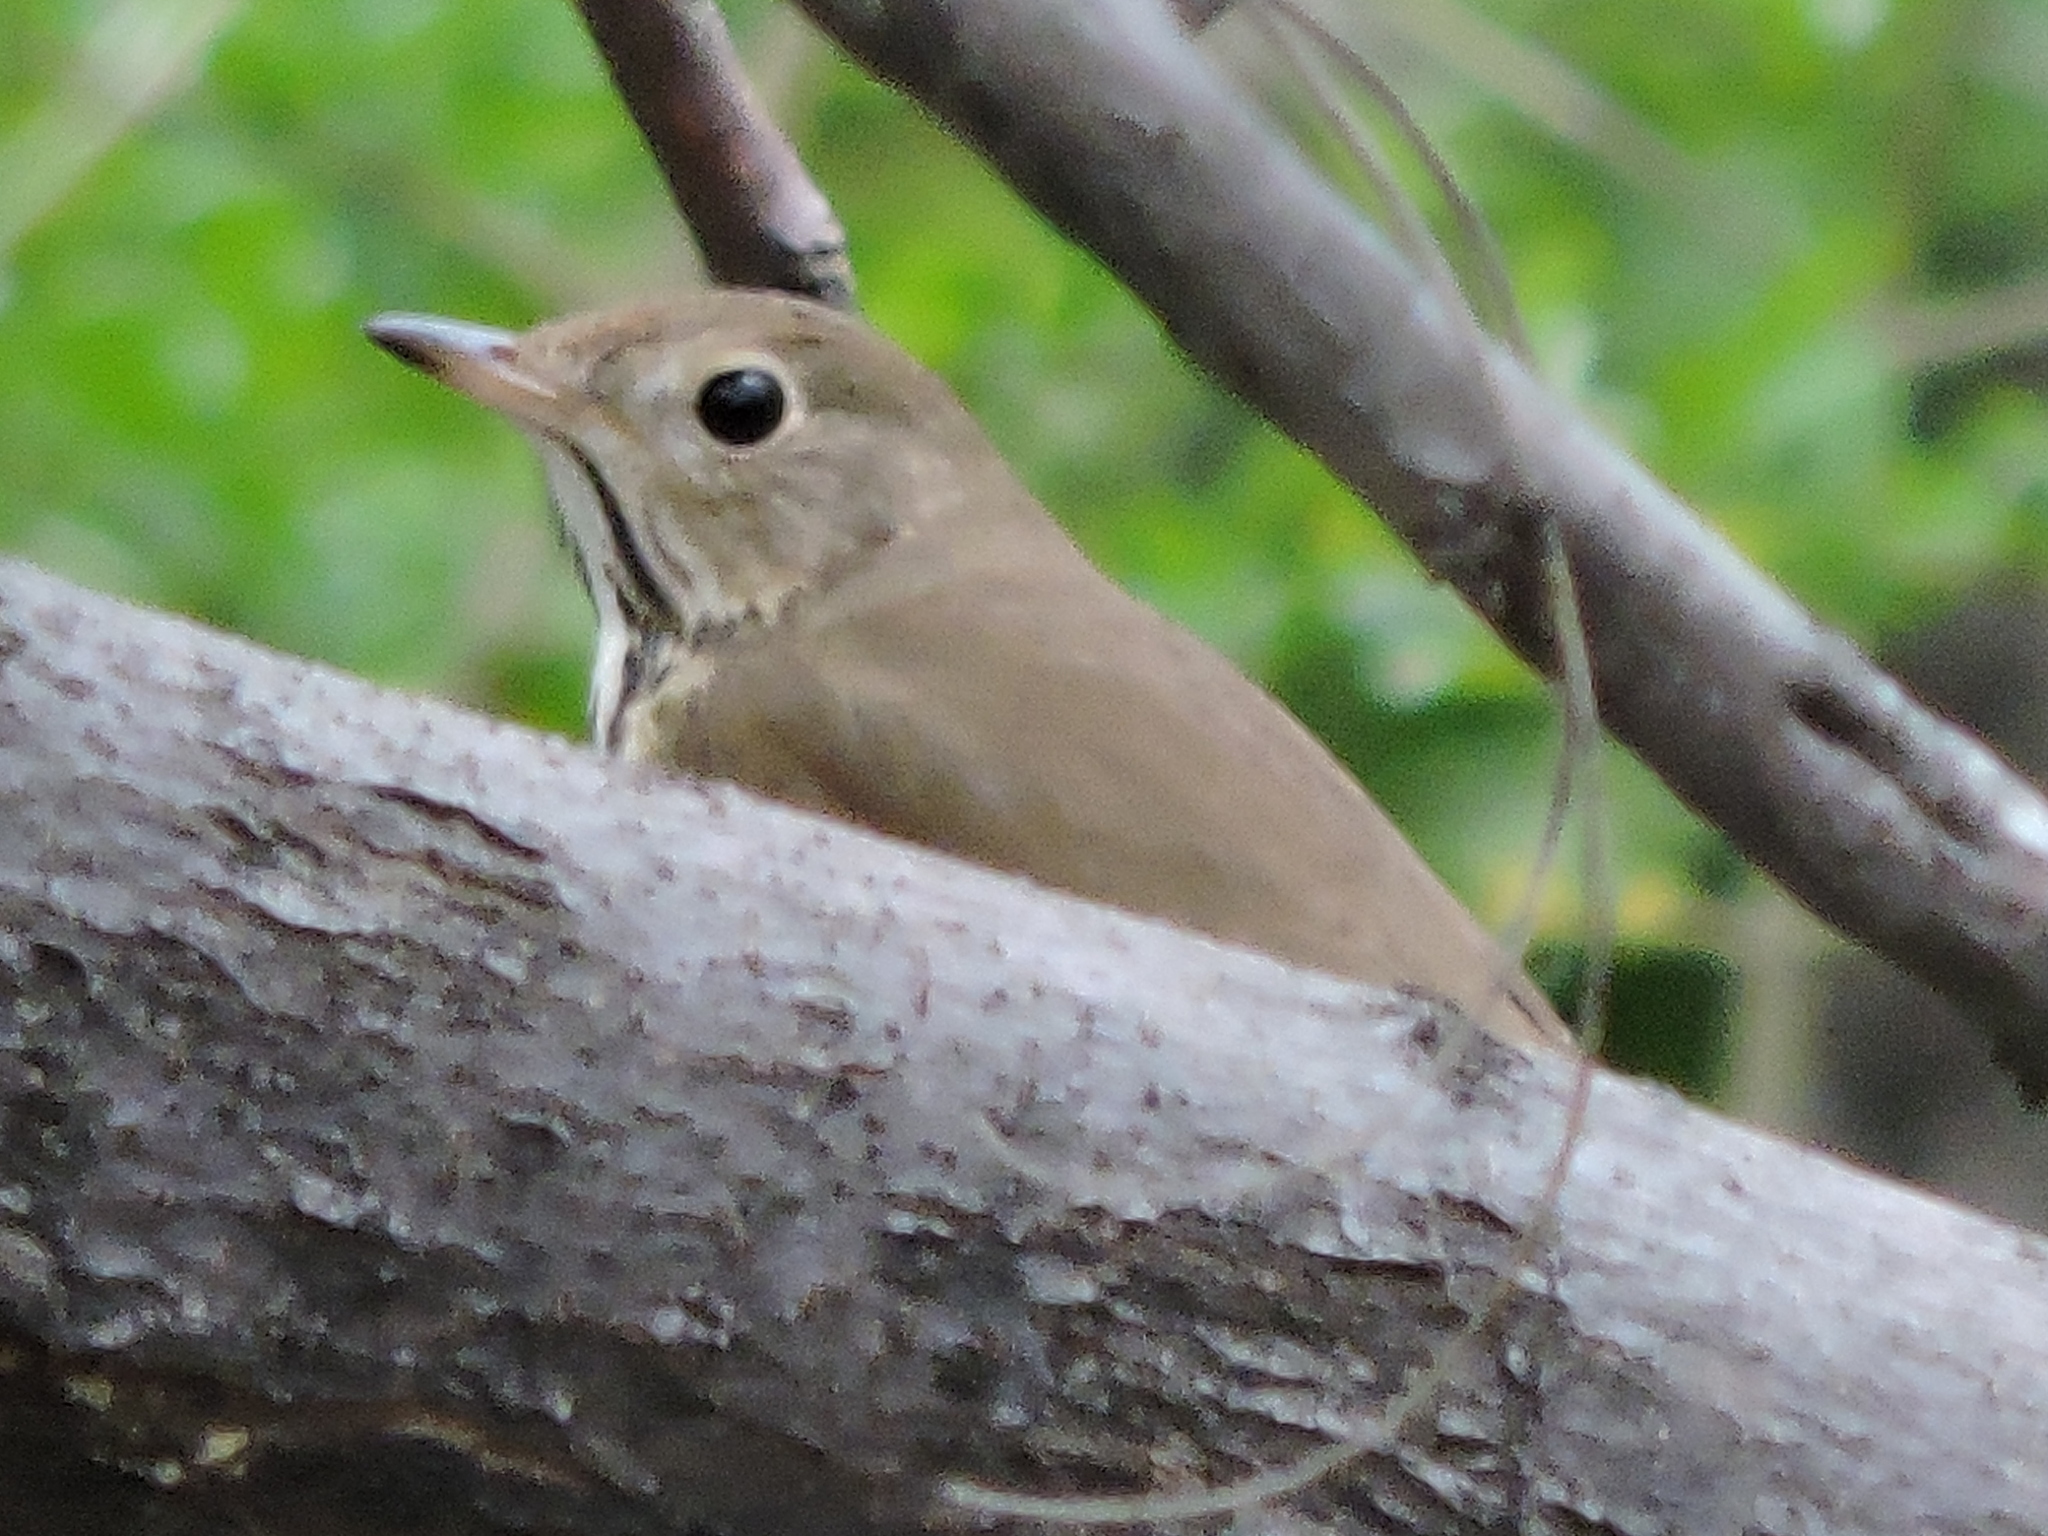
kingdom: Animalia
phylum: Chordata
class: Aves
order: Passeriformes
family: Turdidae
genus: Catharus
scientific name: Catharus guttatus
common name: Hermit thrush
